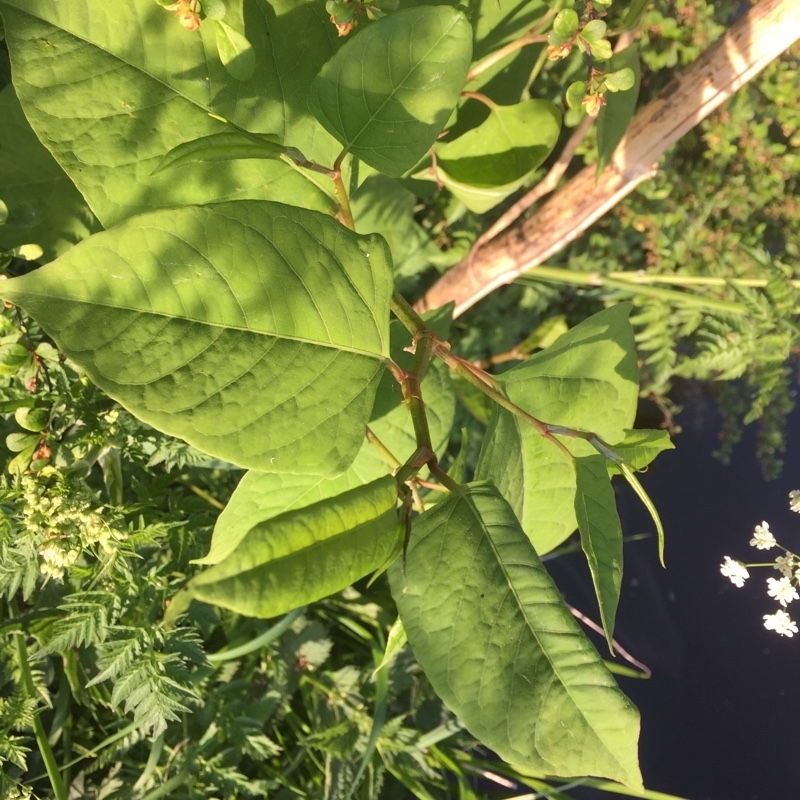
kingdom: Plantae
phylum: Tracheophyta
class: Magnoliopsida
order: Caryophyllales
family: Polygonaceae
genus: Reynoutria
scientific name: Reynoutria japonica
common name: Japanese knotweed
